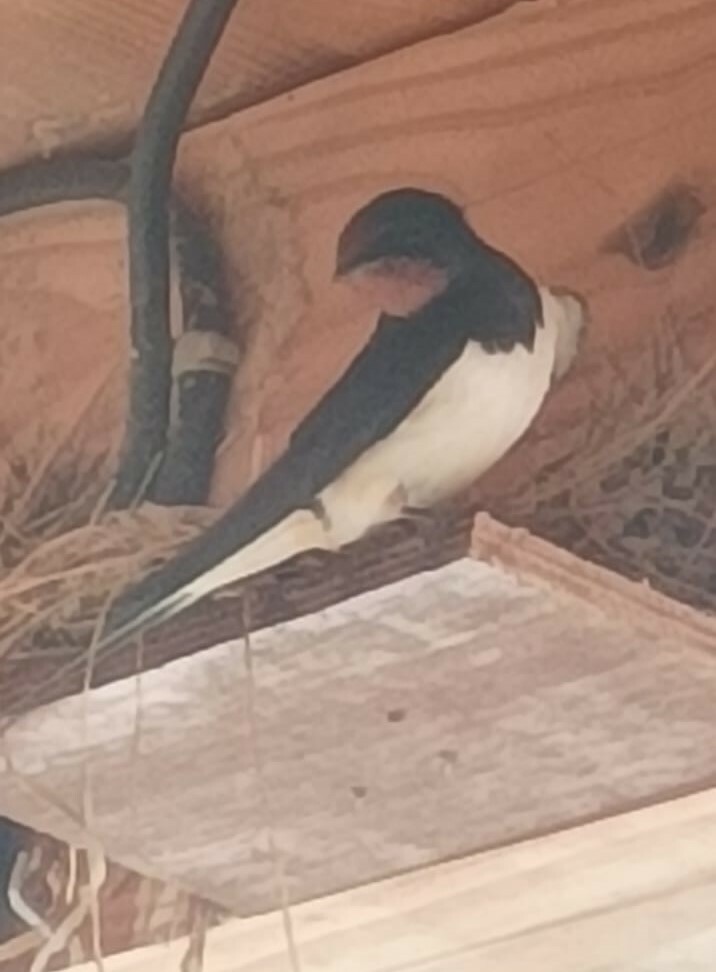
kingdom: Animalia
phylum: Chordata
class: Aves
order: Passeriformes
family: Hirundinidae
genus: Hirundo
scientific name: Hirundo rustica
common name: Barn swallow
